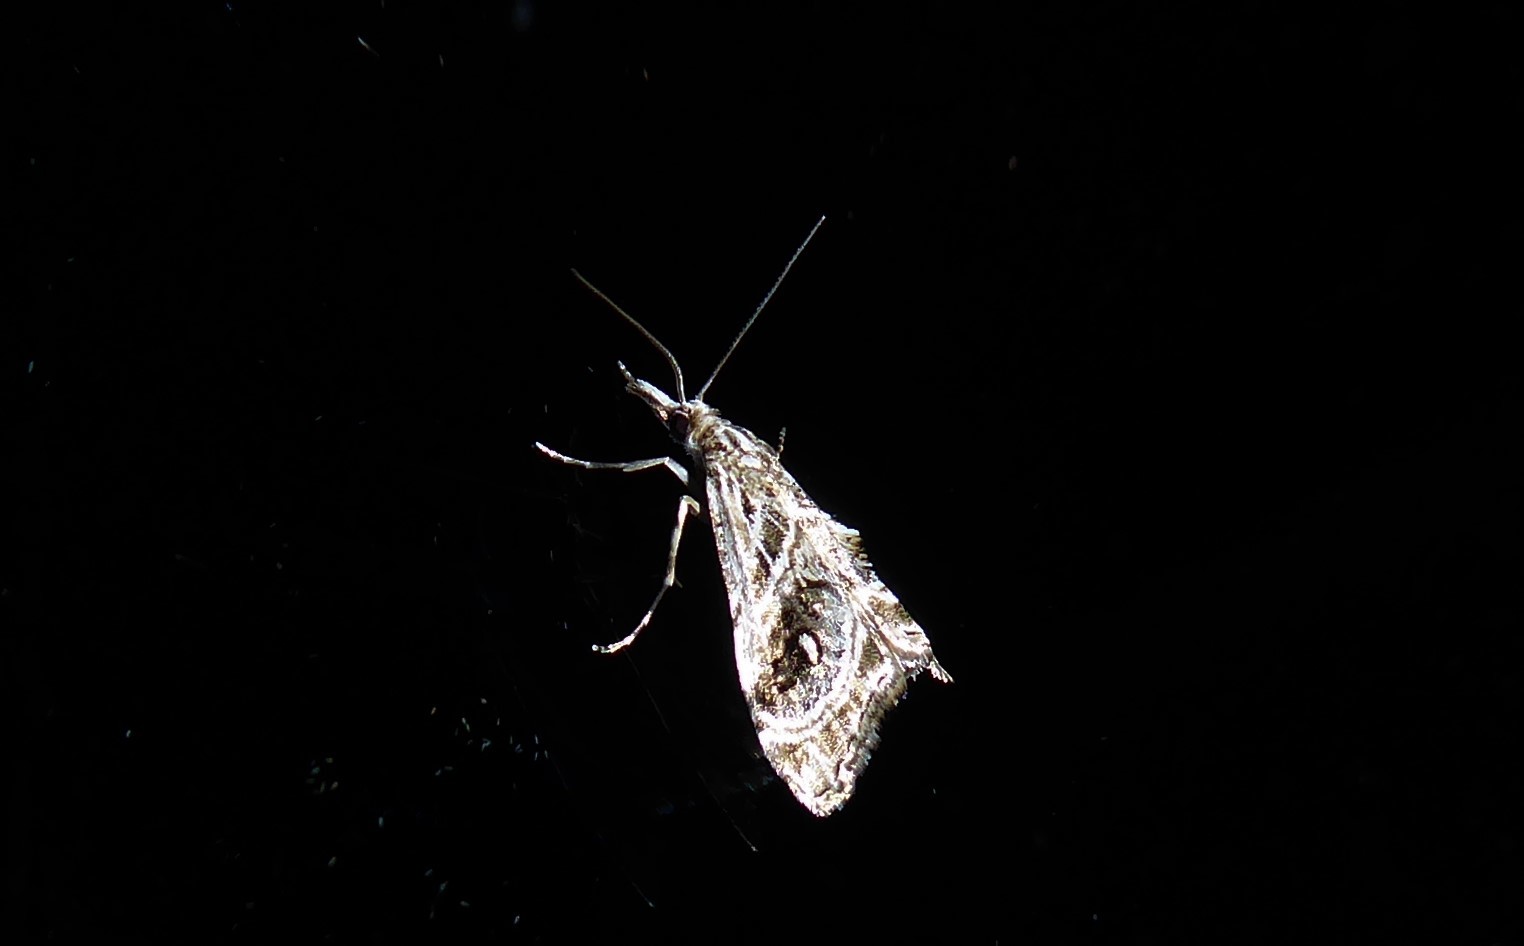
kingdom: Animalia
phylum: Arthropoda
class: Insecta
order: Lepidoptera
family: Crambidae
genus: Gadira
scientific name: Gadira acerella
